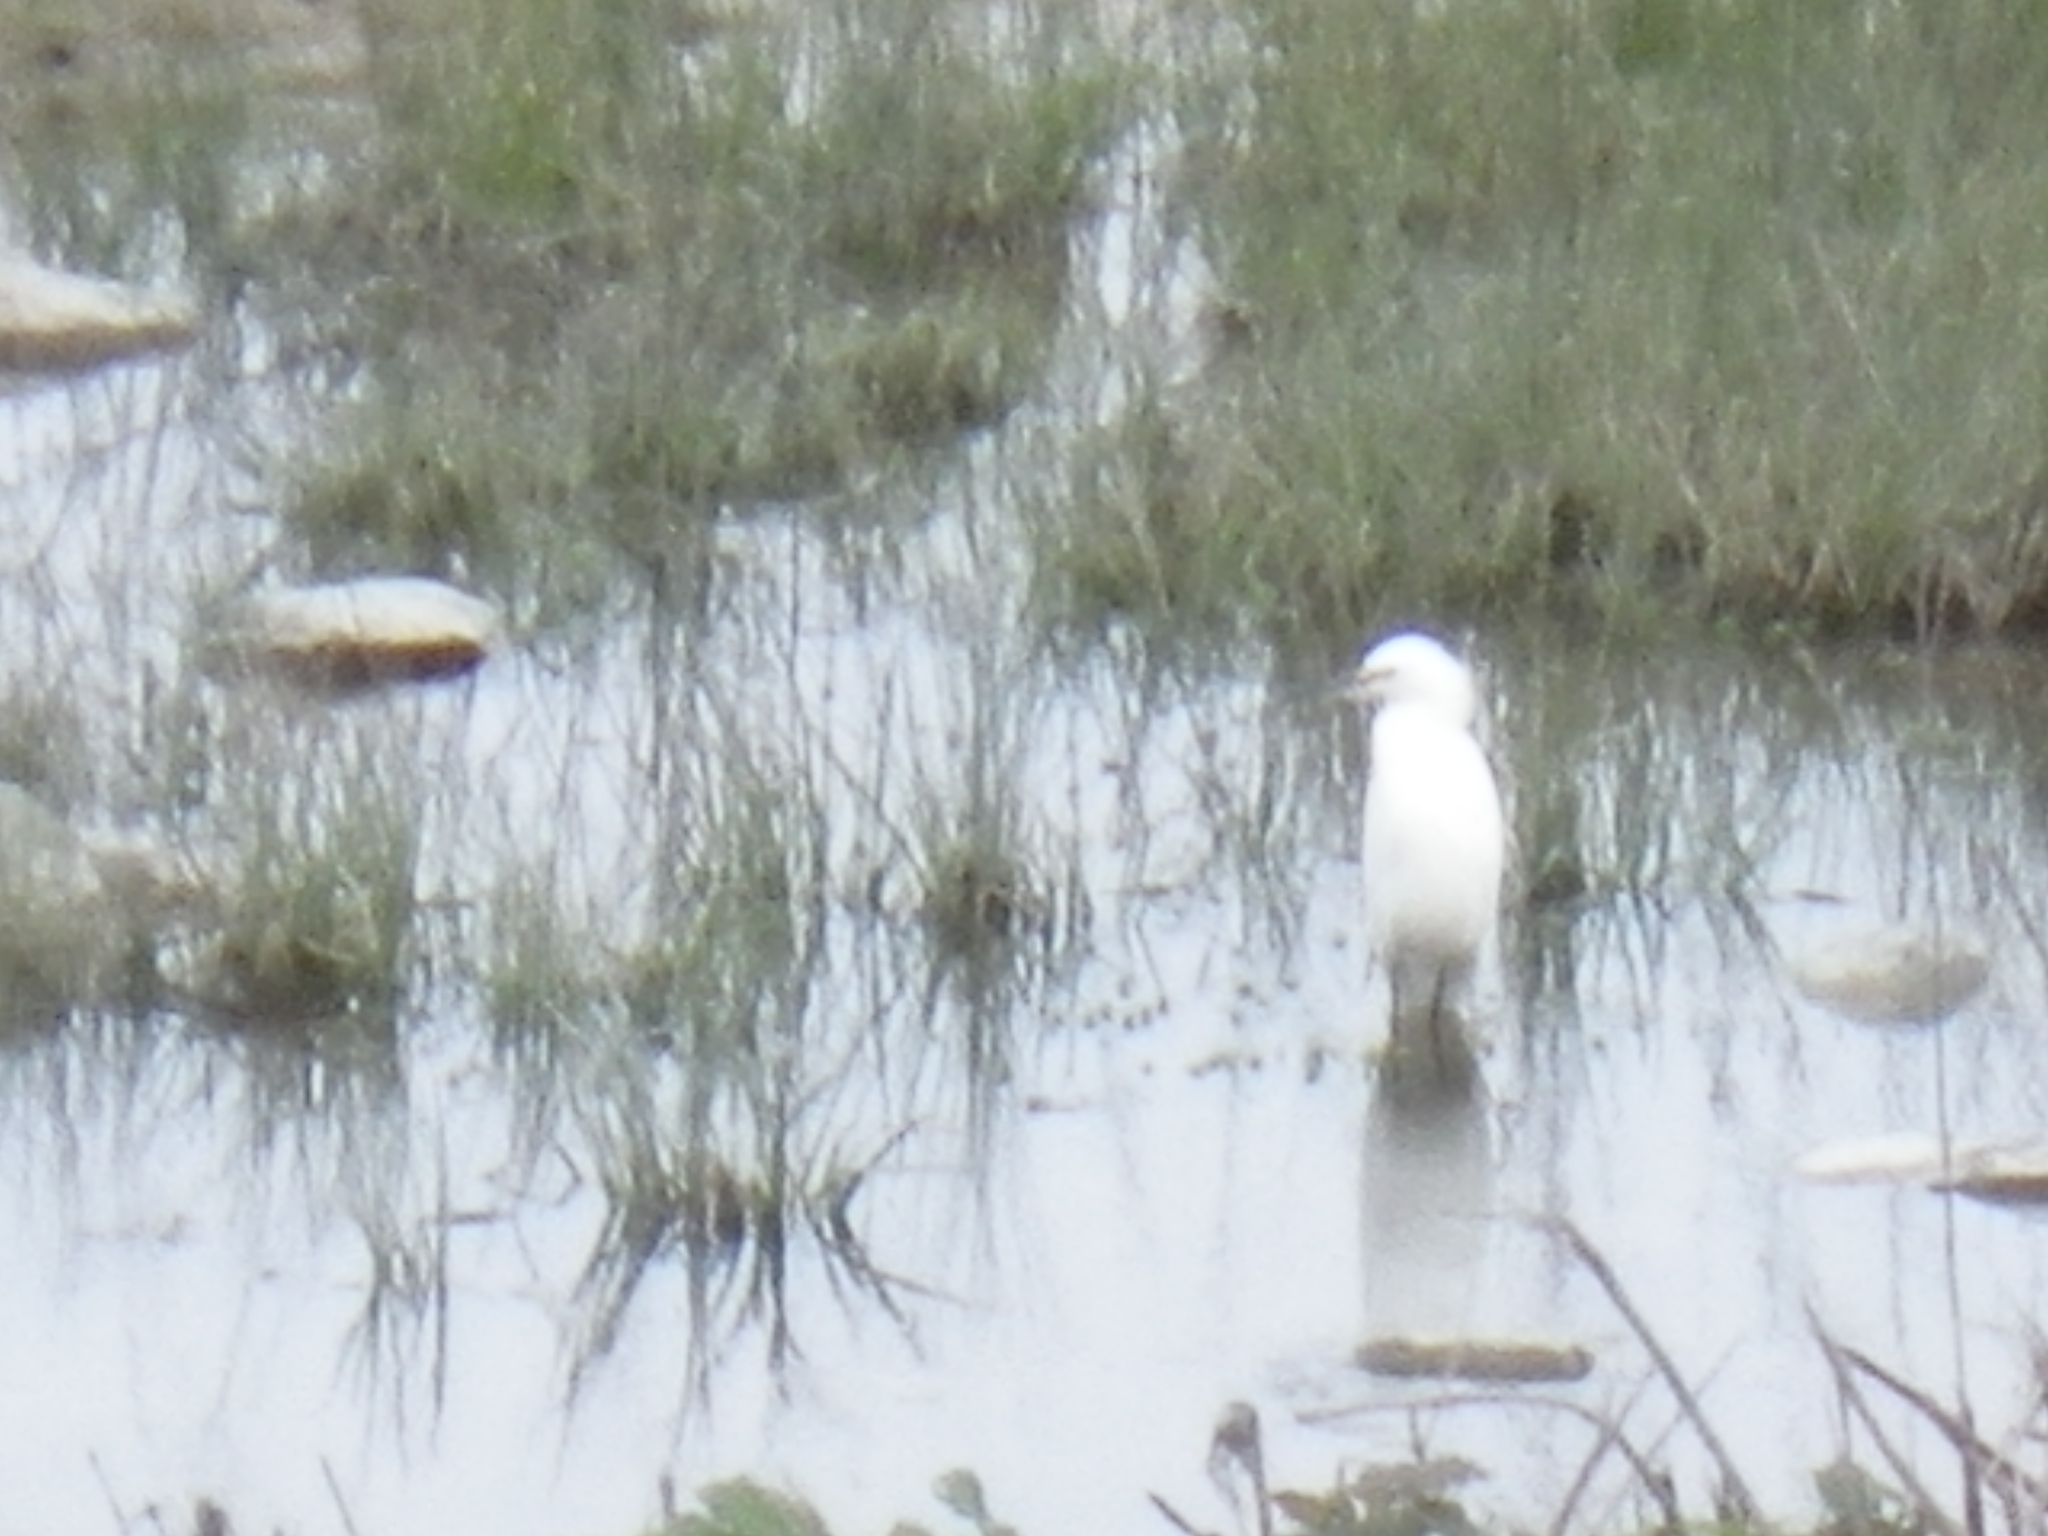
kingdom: Animalia
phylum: Chordata
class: Aves
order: Pelecaniformes
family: Ardeidae
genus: Egretta
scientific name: Egretta thula
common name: Snowy egret
